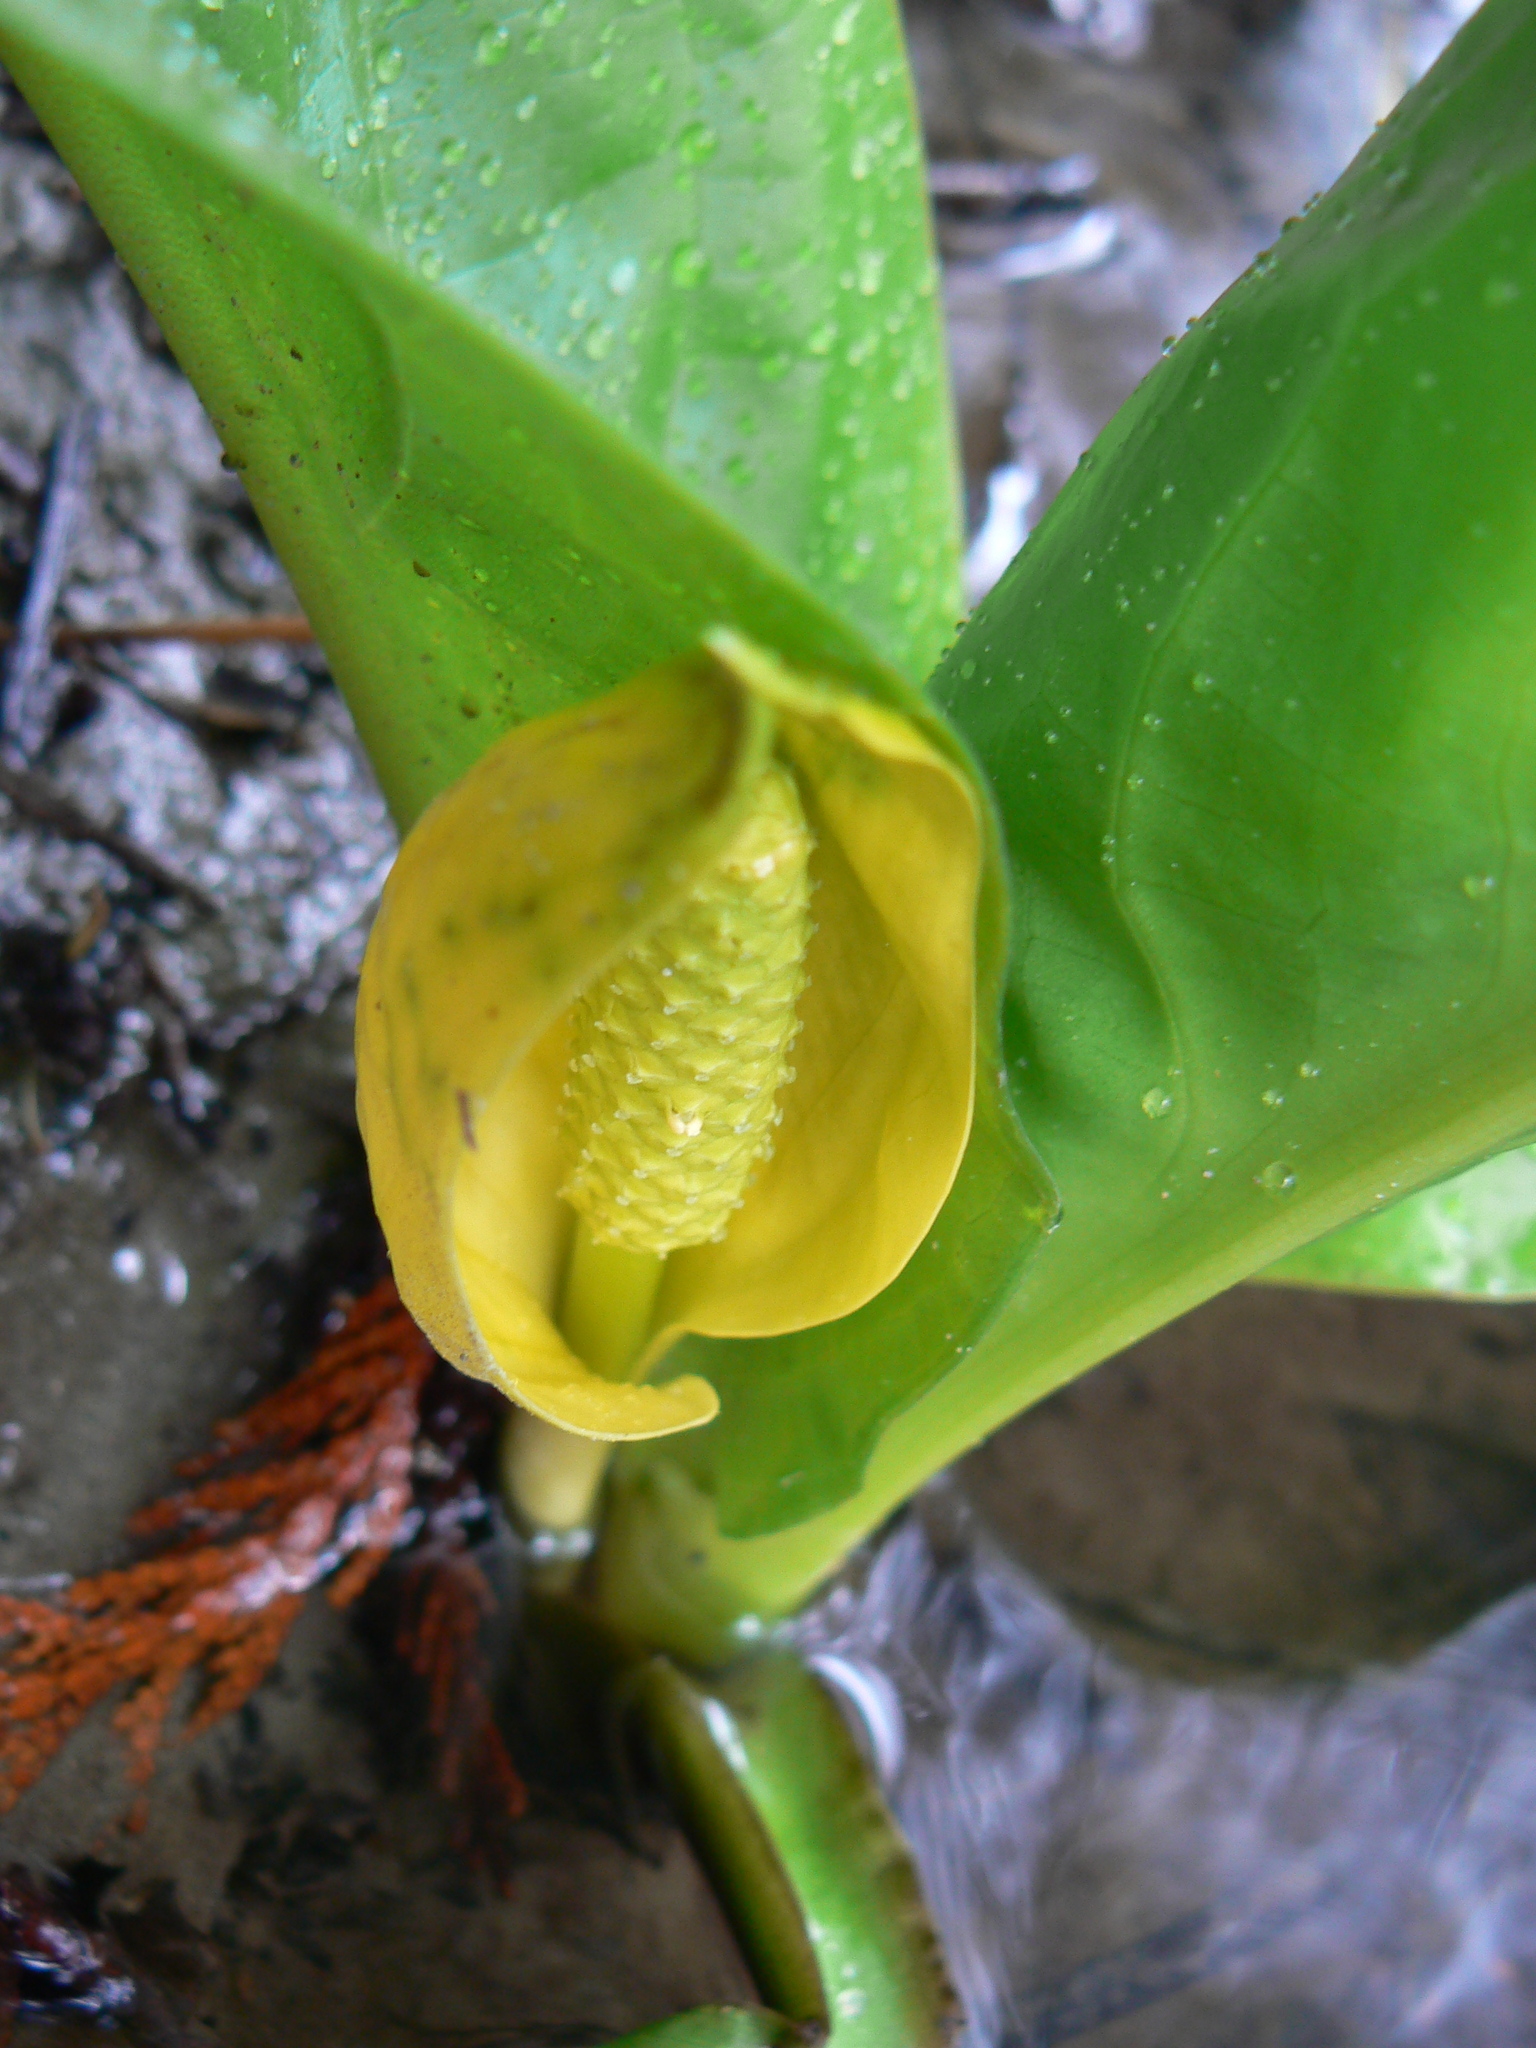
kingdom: Plantae
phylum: Tracheophyta
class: Liliopsida
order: Alismatales
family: Araceae
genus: Lysichiton
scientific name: Lysichiton americanus
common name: American skunk cabbage
